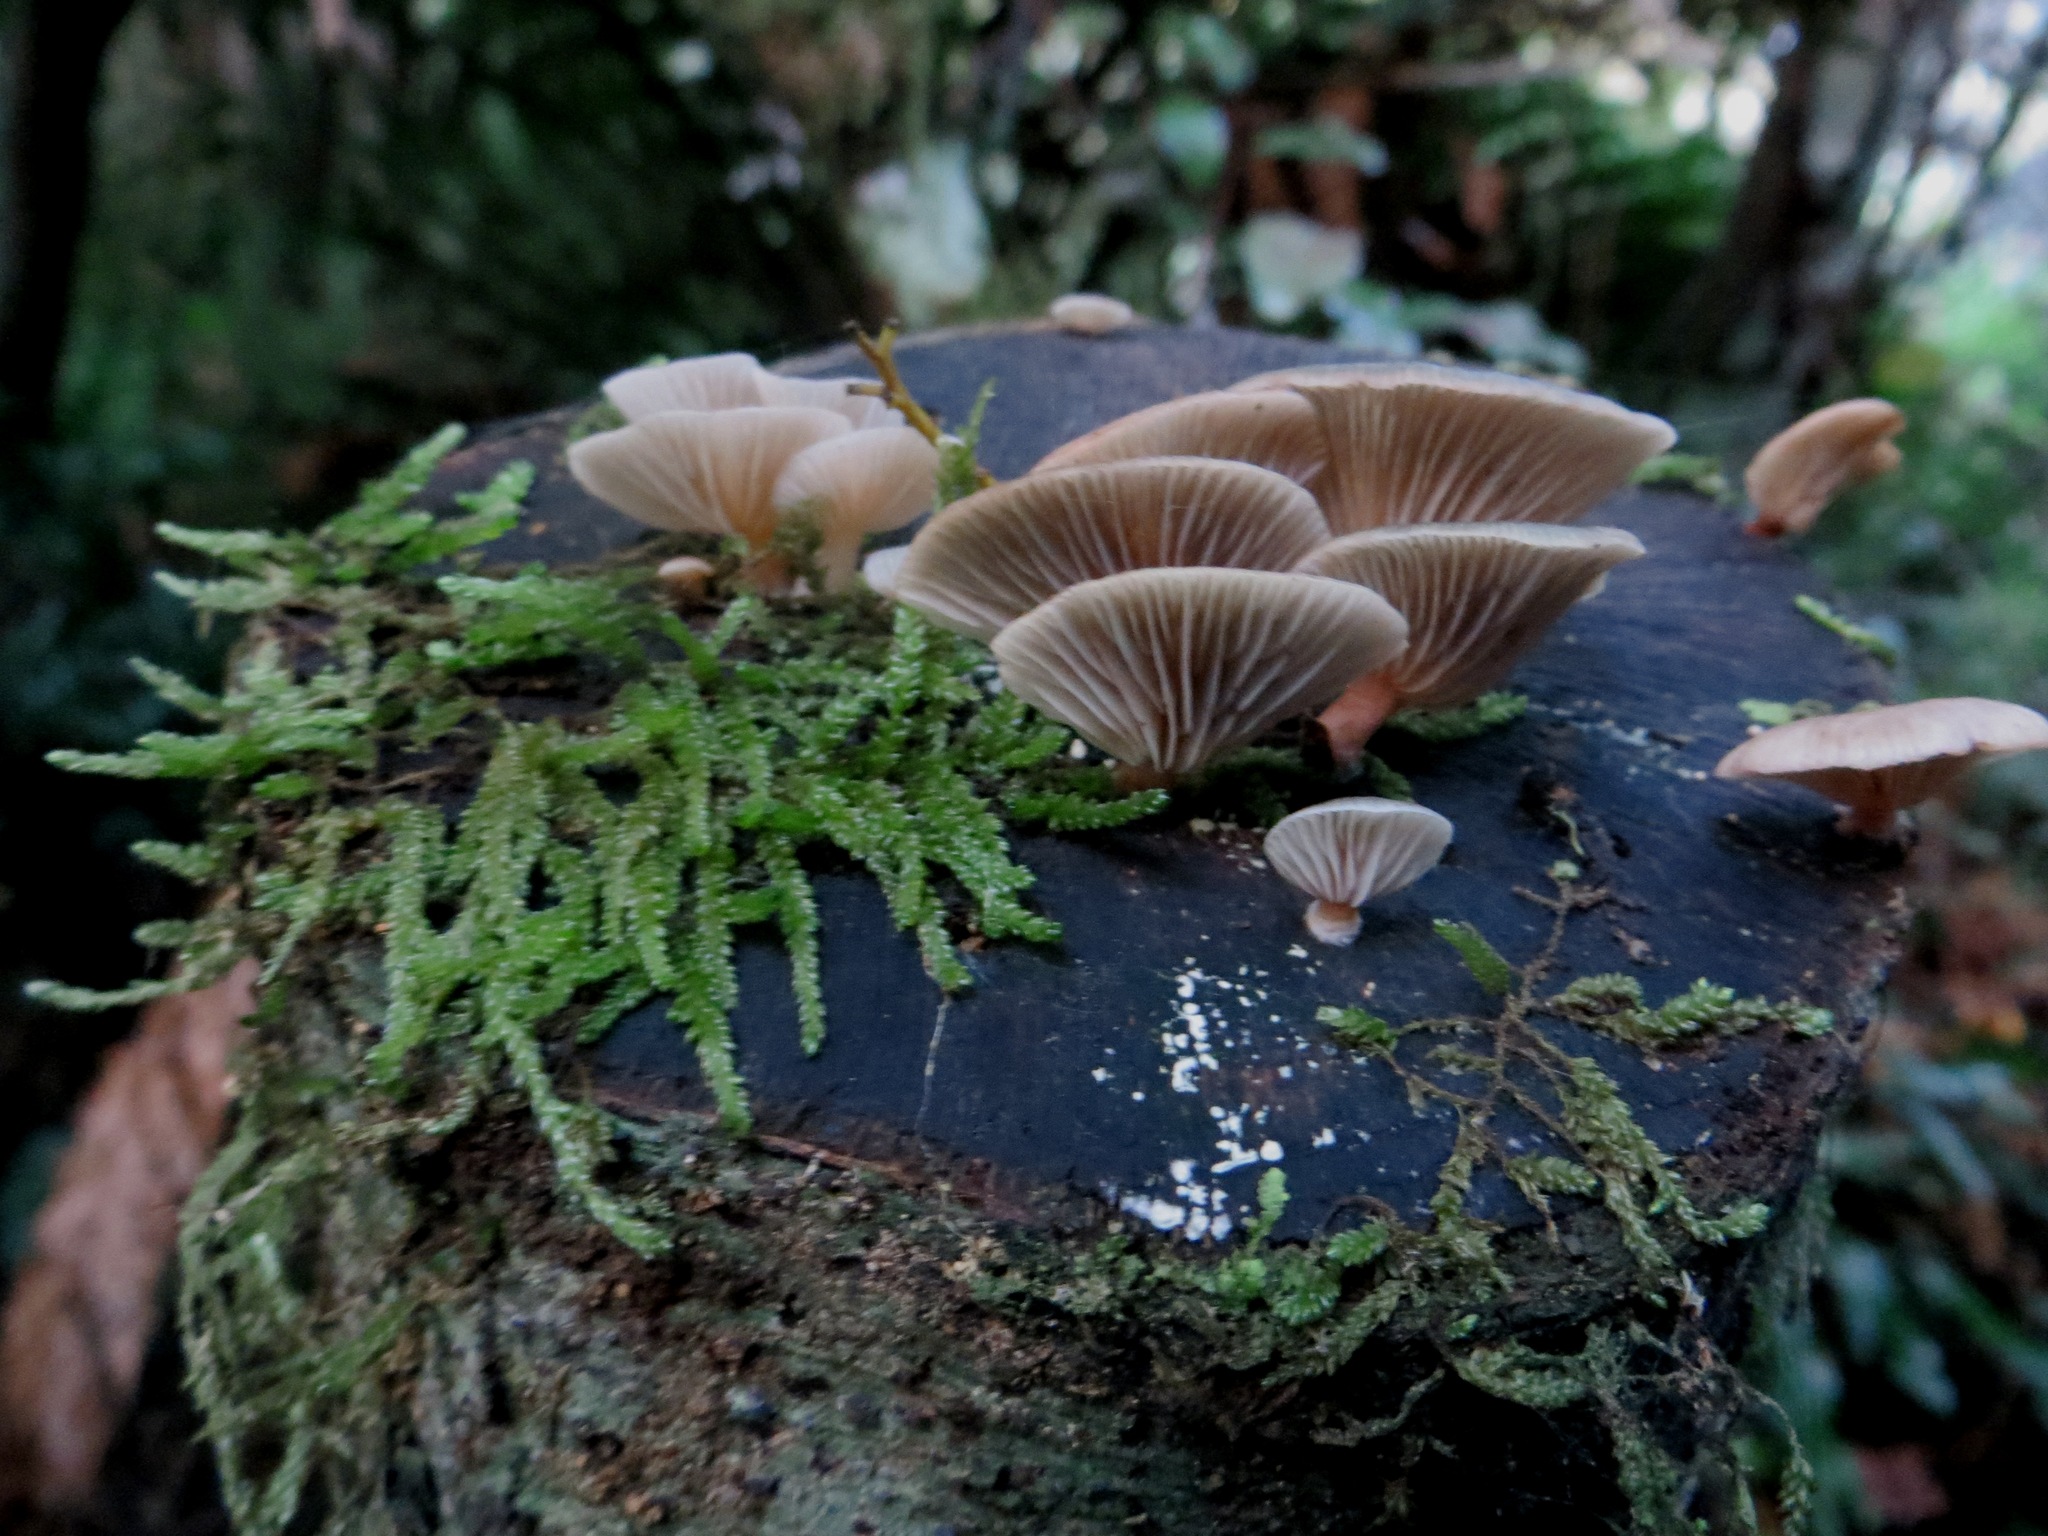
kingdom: Fungi
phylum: Basidiomycota
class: Agaricomycetes
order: Agaricales
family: Mycenaceae
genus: Panellus
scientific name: Panellus longinquus
